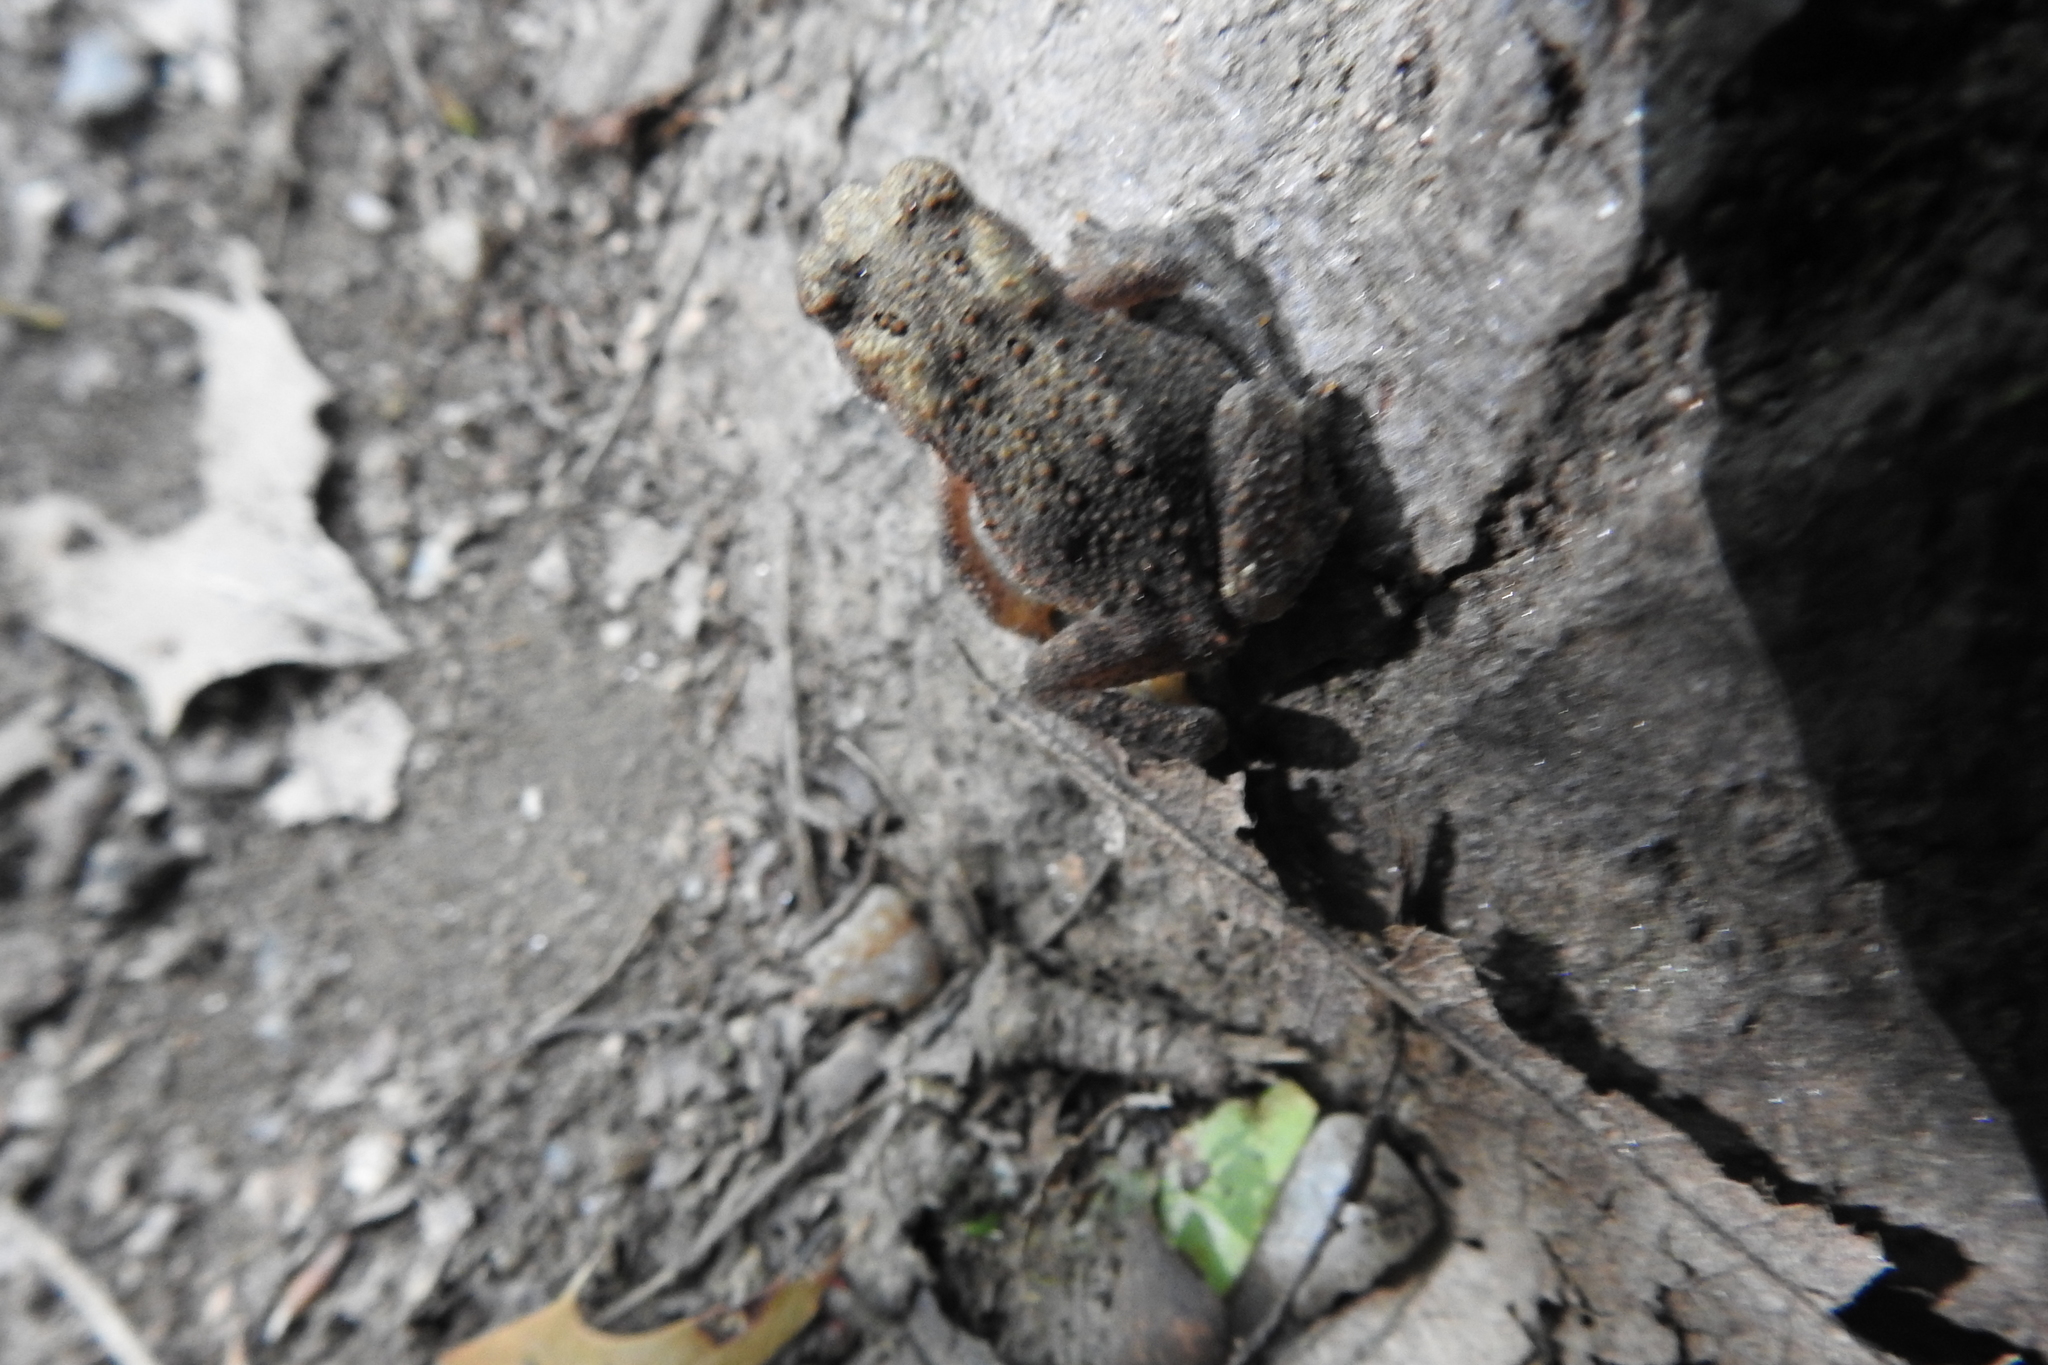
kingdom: Animalia
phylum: Chordata
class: Amphibia
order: Anura
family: Bufonidae
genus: Anaxyrus
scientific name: Anaxyrus americanus
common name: American toad
